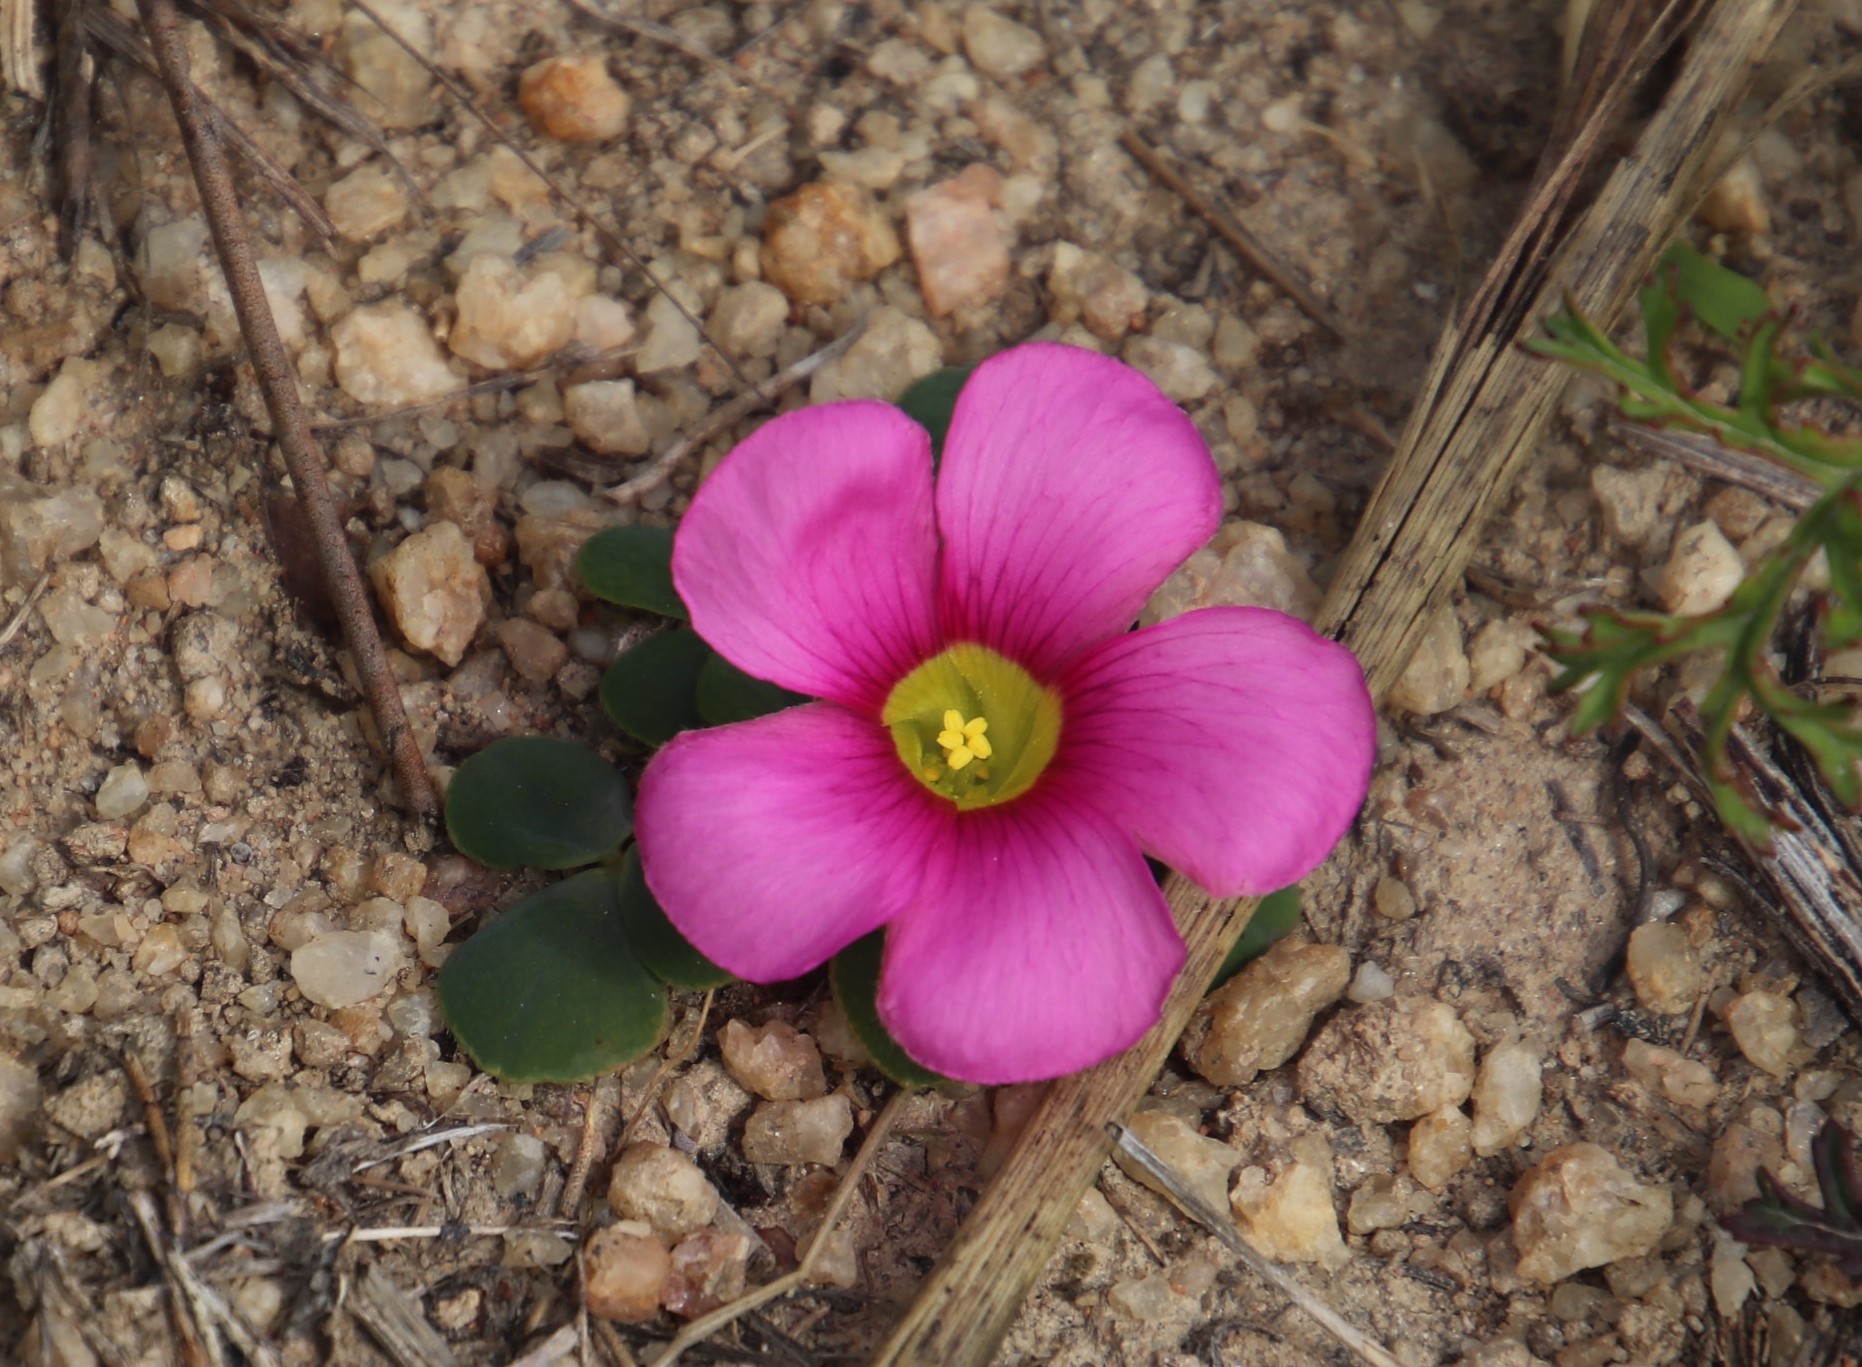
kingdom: Plantae
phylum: Tracheophyta
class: Magnoliopsida
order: Oxalidales
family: Oxalidaceae
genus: Oxalis
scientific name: Oxalis purpurea
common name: Purple woodsorrel
